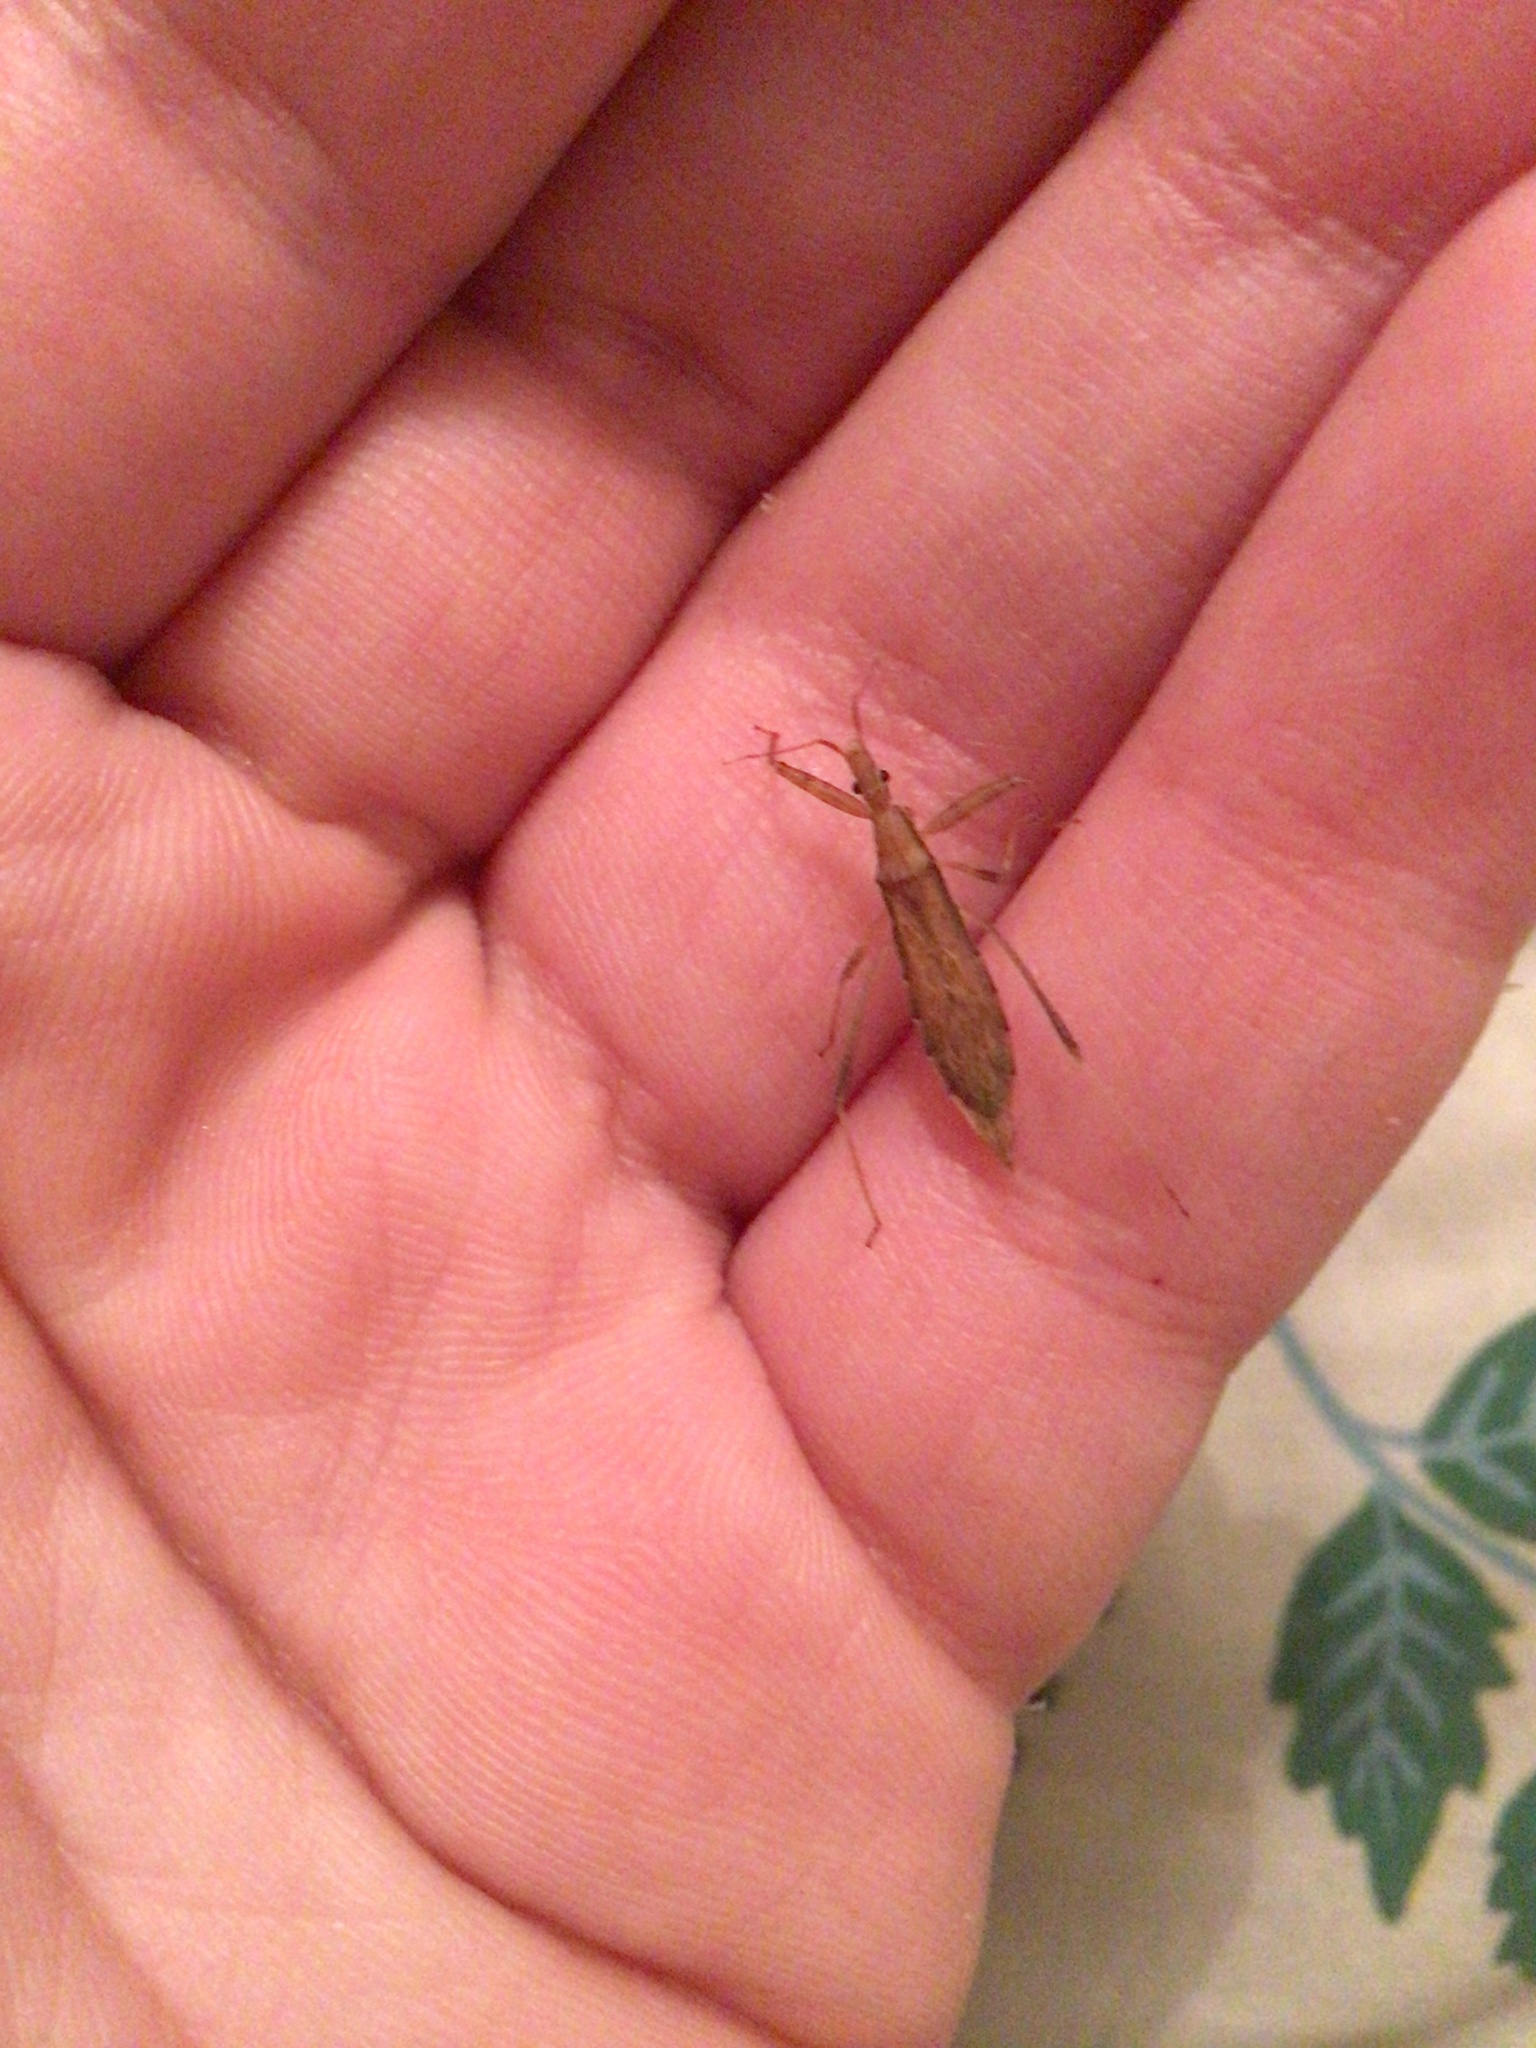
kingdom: Animalia
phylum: Arthropoda
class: Insecta
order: Hemiptera
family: Reduviidae
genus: Sastrapada
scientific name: Sastrapada australica
